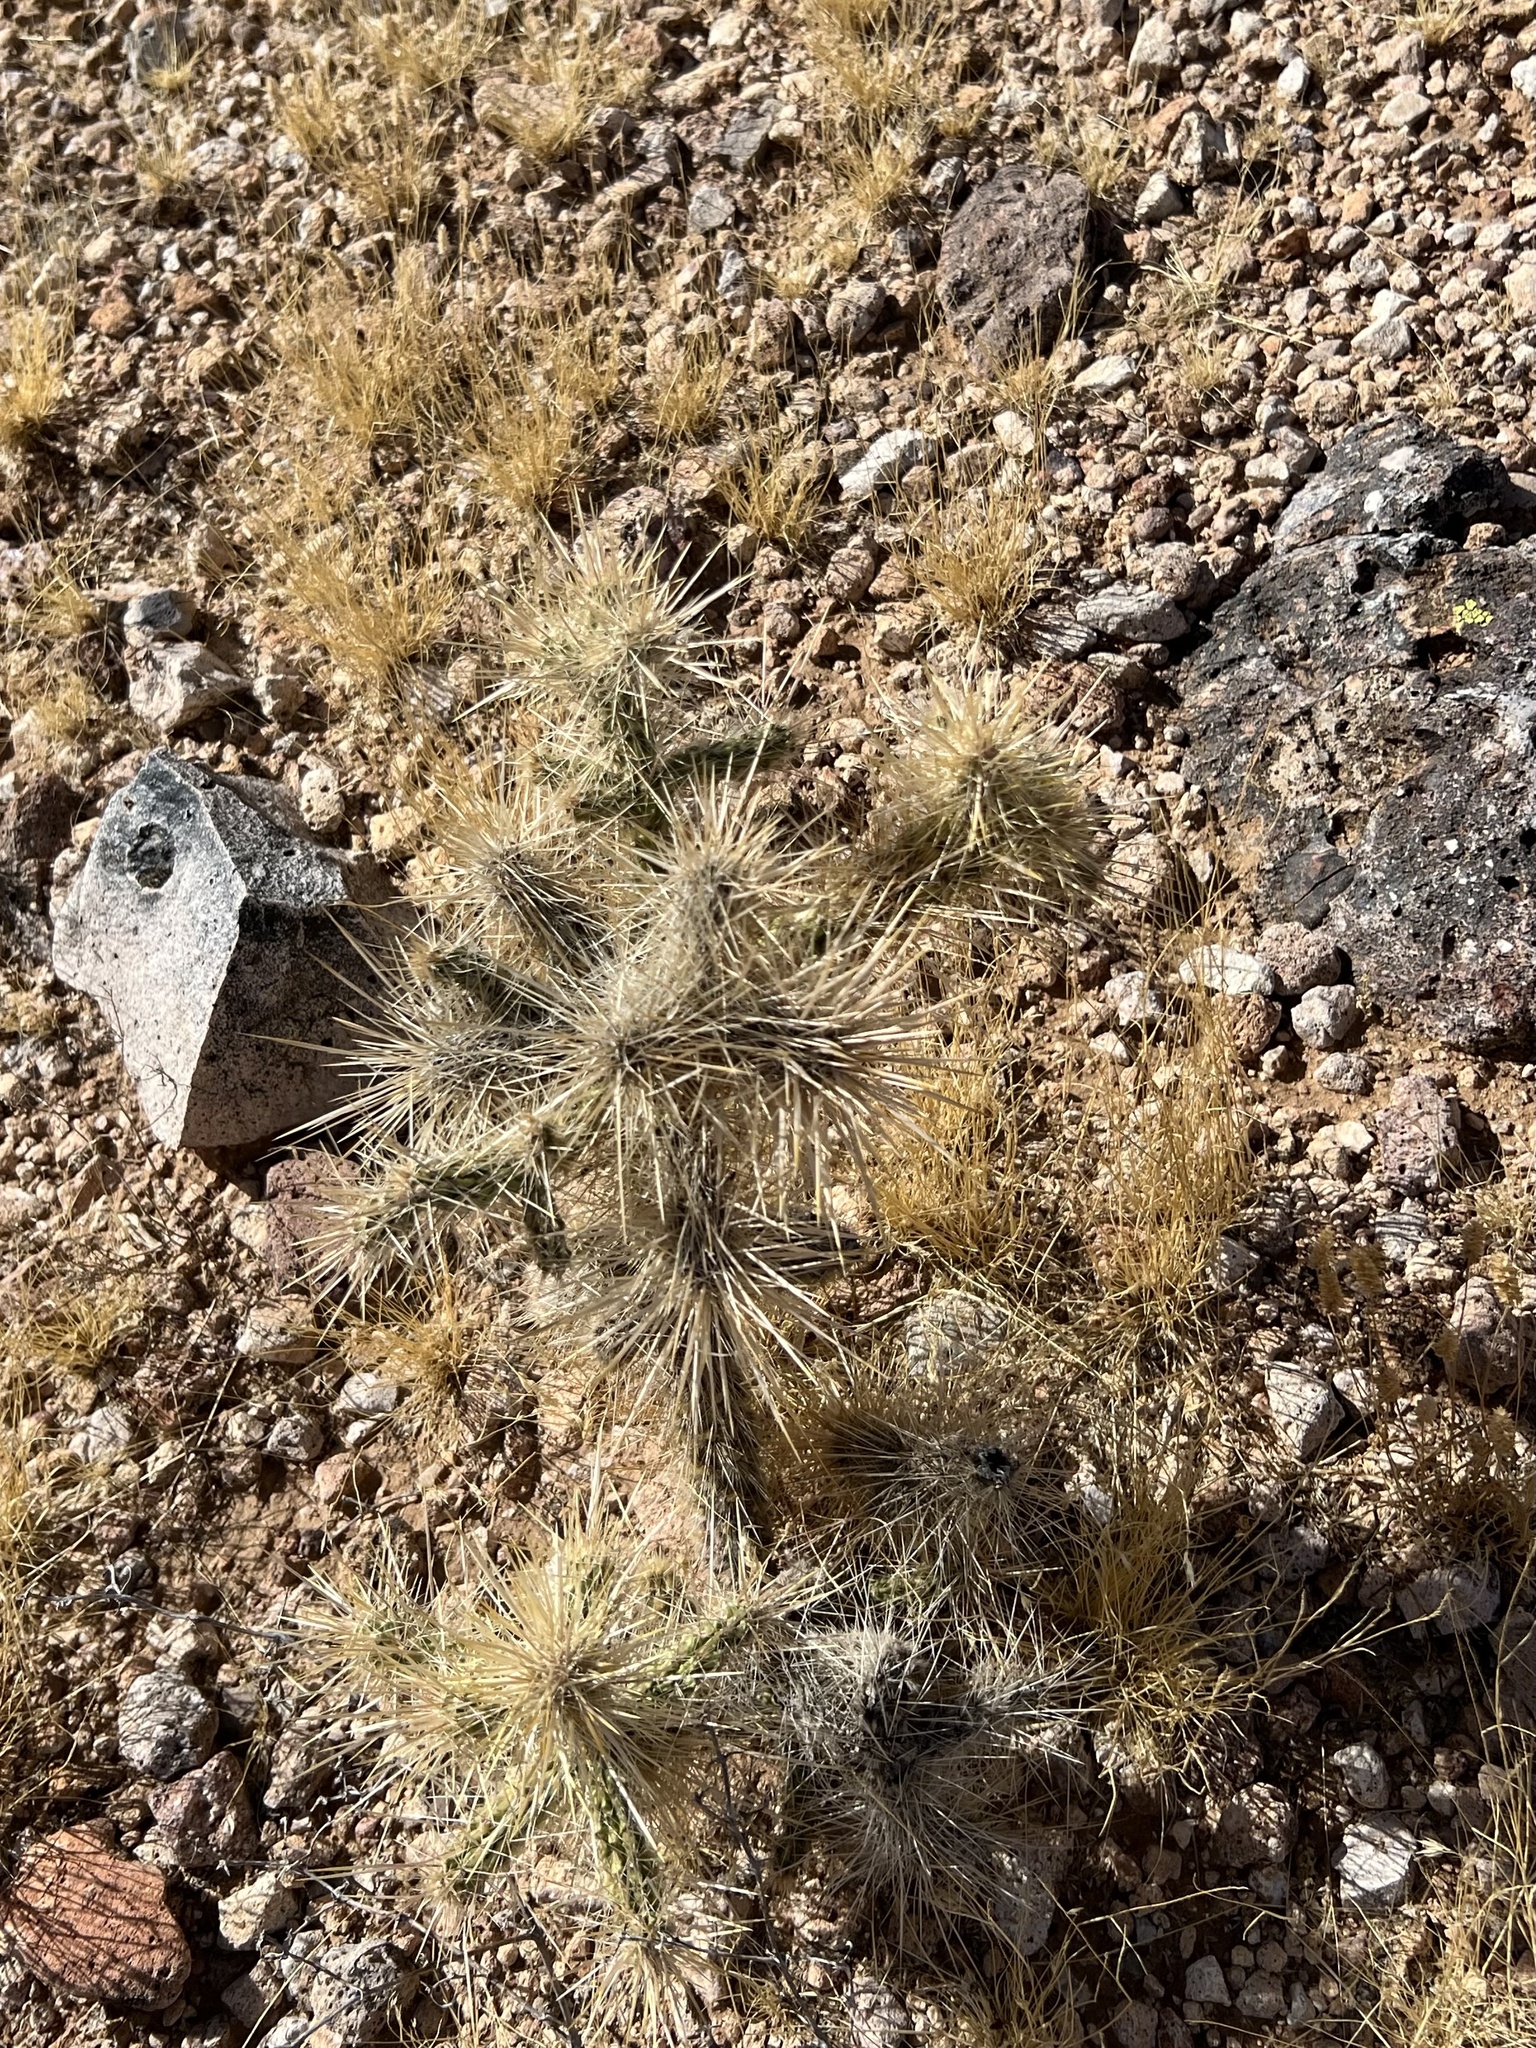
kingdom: Plantae
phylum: Tracheophyta
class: Magnoliopsida
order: Caryophyllales
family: Cactaceae
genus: Cylindropuntia
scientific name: Cylindropuntia echinocarpa
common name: Ground cholla
